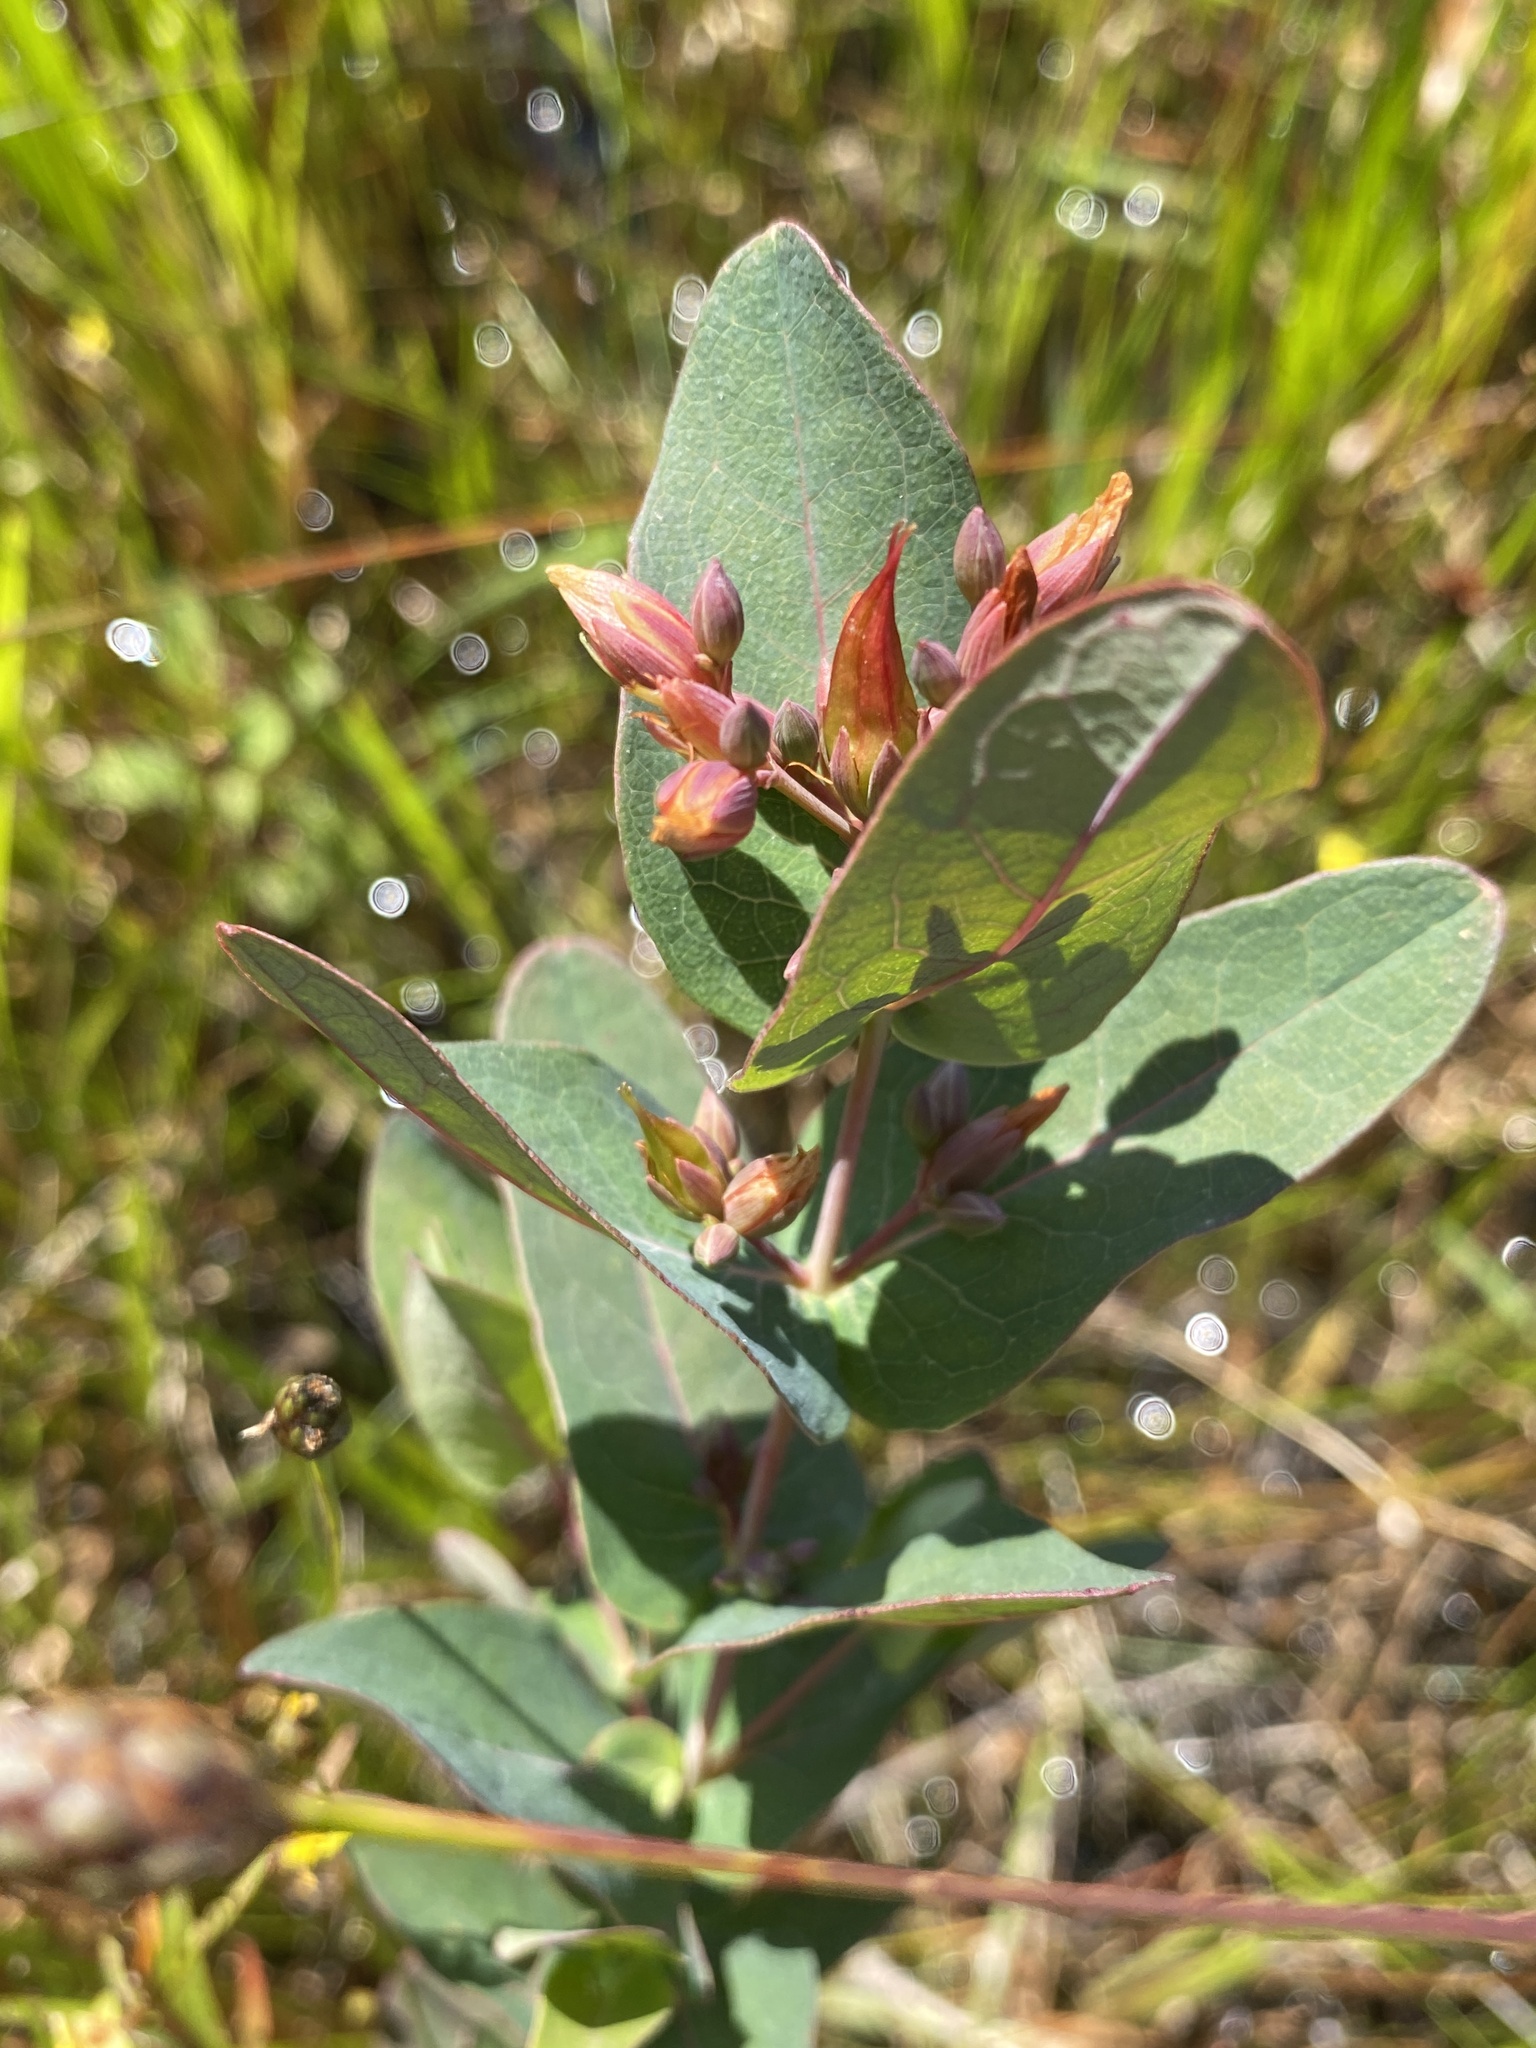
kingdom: Plantae
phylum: Tracheophyta
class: Magnoliopsida
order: Malpighiales
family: Hypericaceae
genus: Triadenum
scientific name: Triadenum virginicum
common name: Marsh st. john's-wort
